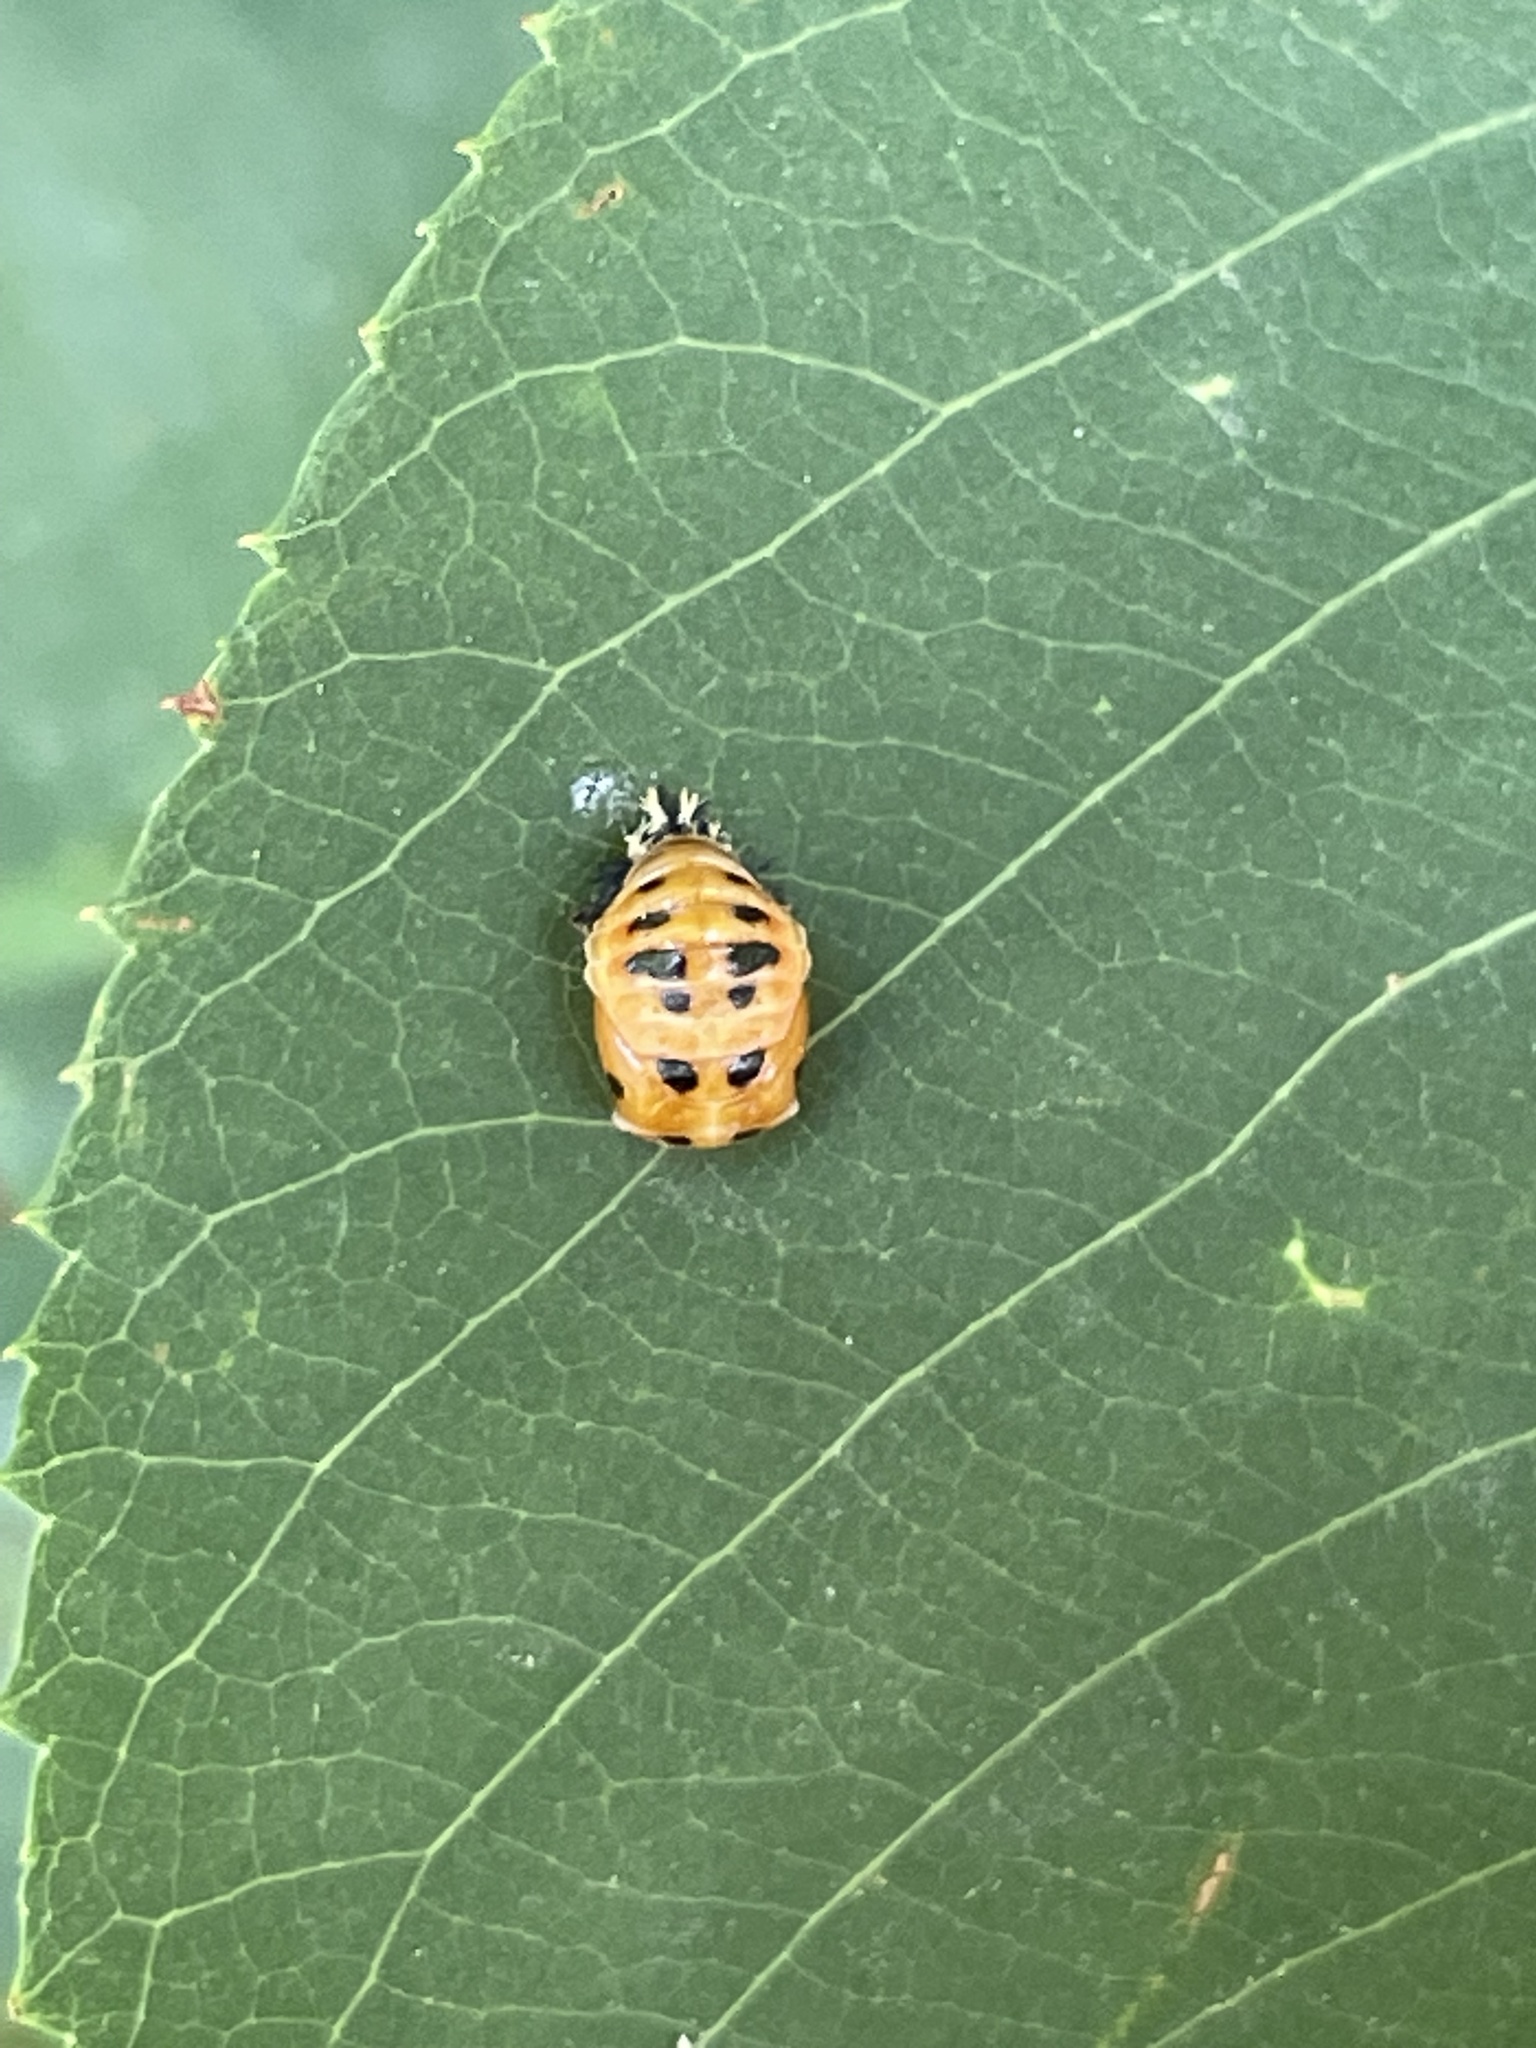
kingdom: Animalia
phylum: Arthropoda
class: Insecta
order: Coleoptera
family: Coccinellidae
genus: Harmonia
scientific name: Harmonia axyridis
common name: Harlequin ladybird
